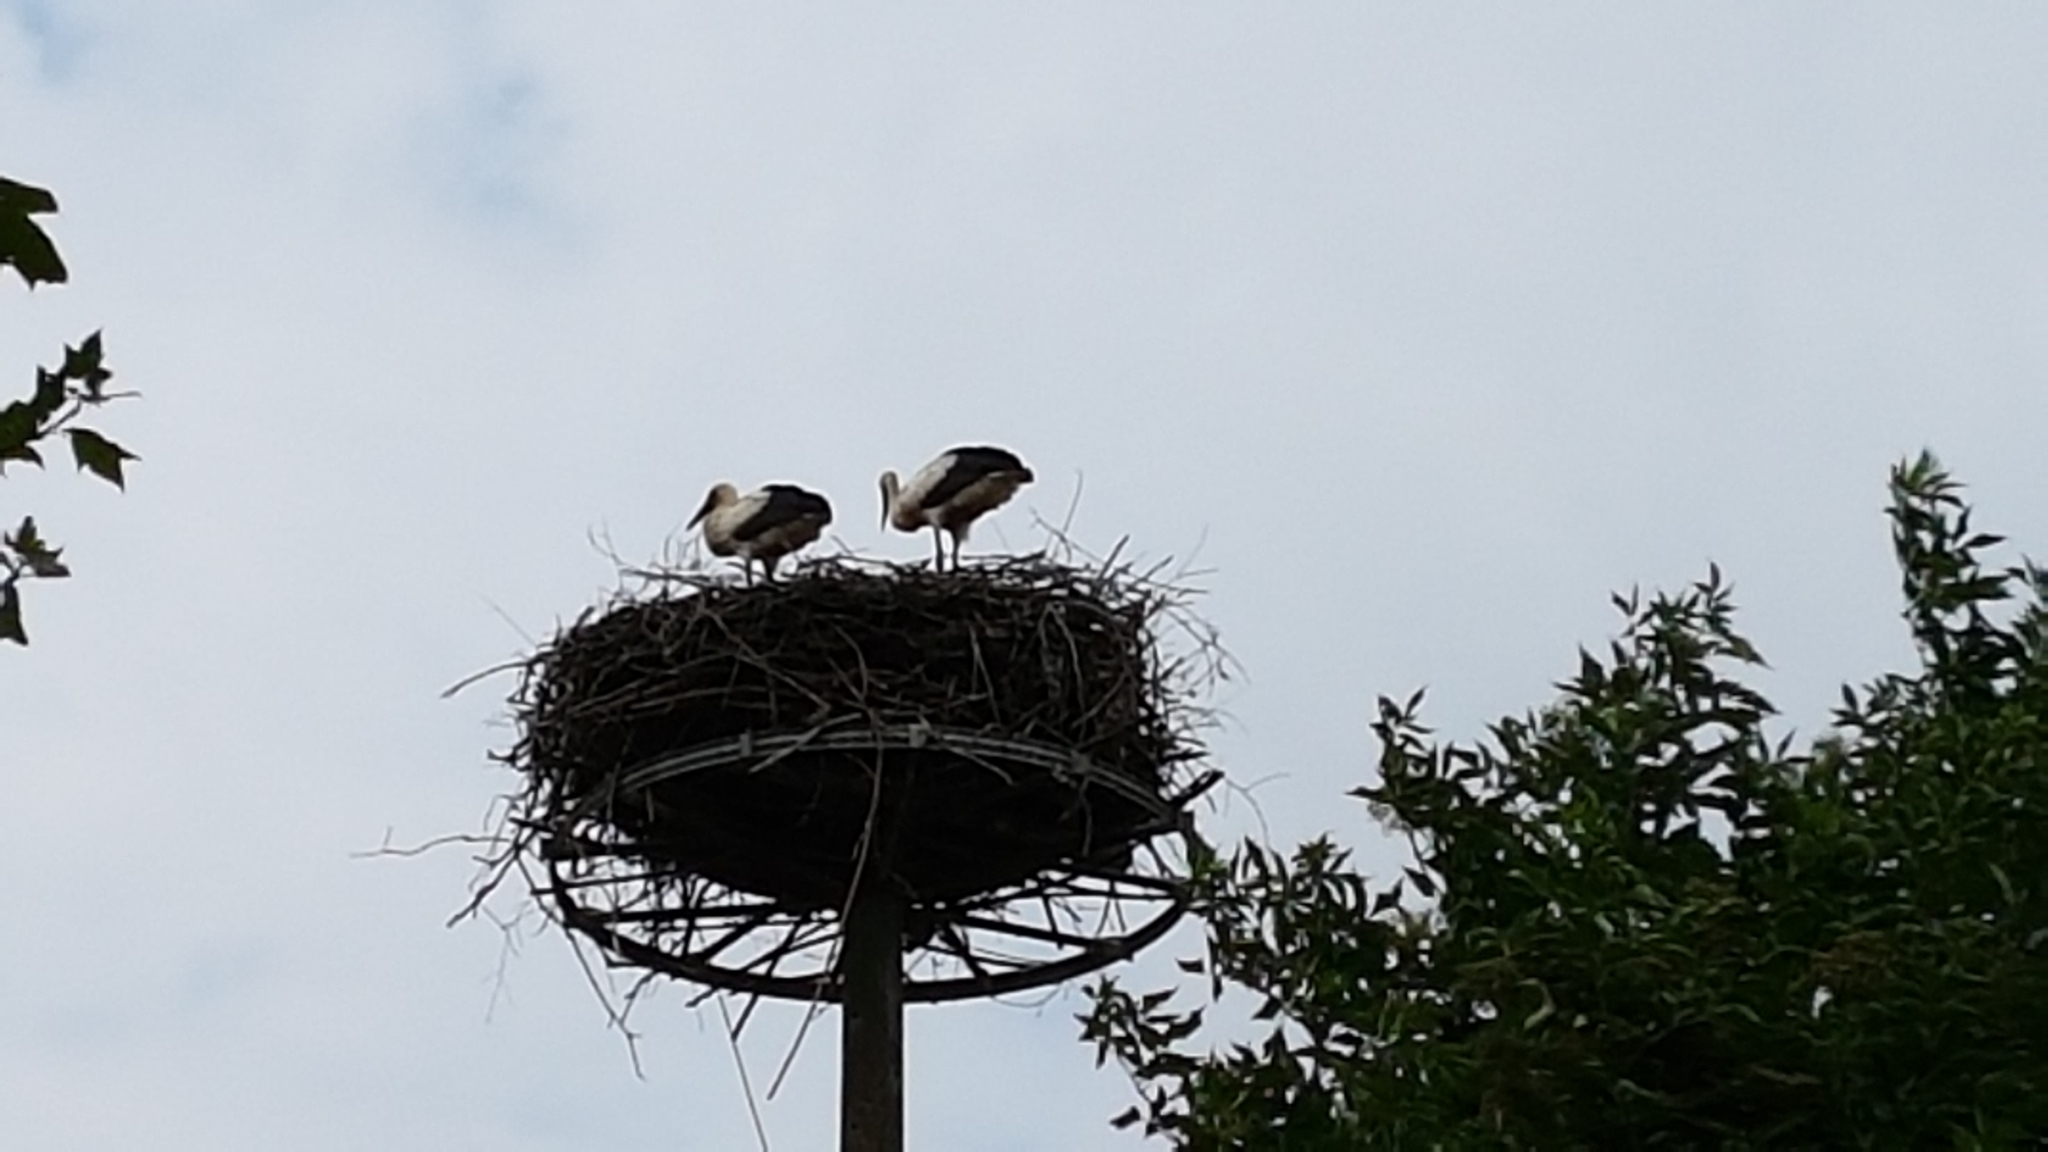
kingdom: Animalia
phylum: Chordata
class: Aves
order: Ciconiiformes
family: Ciconiidae
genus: Ciconia
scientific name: Ciconia ciconia
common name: White stork
